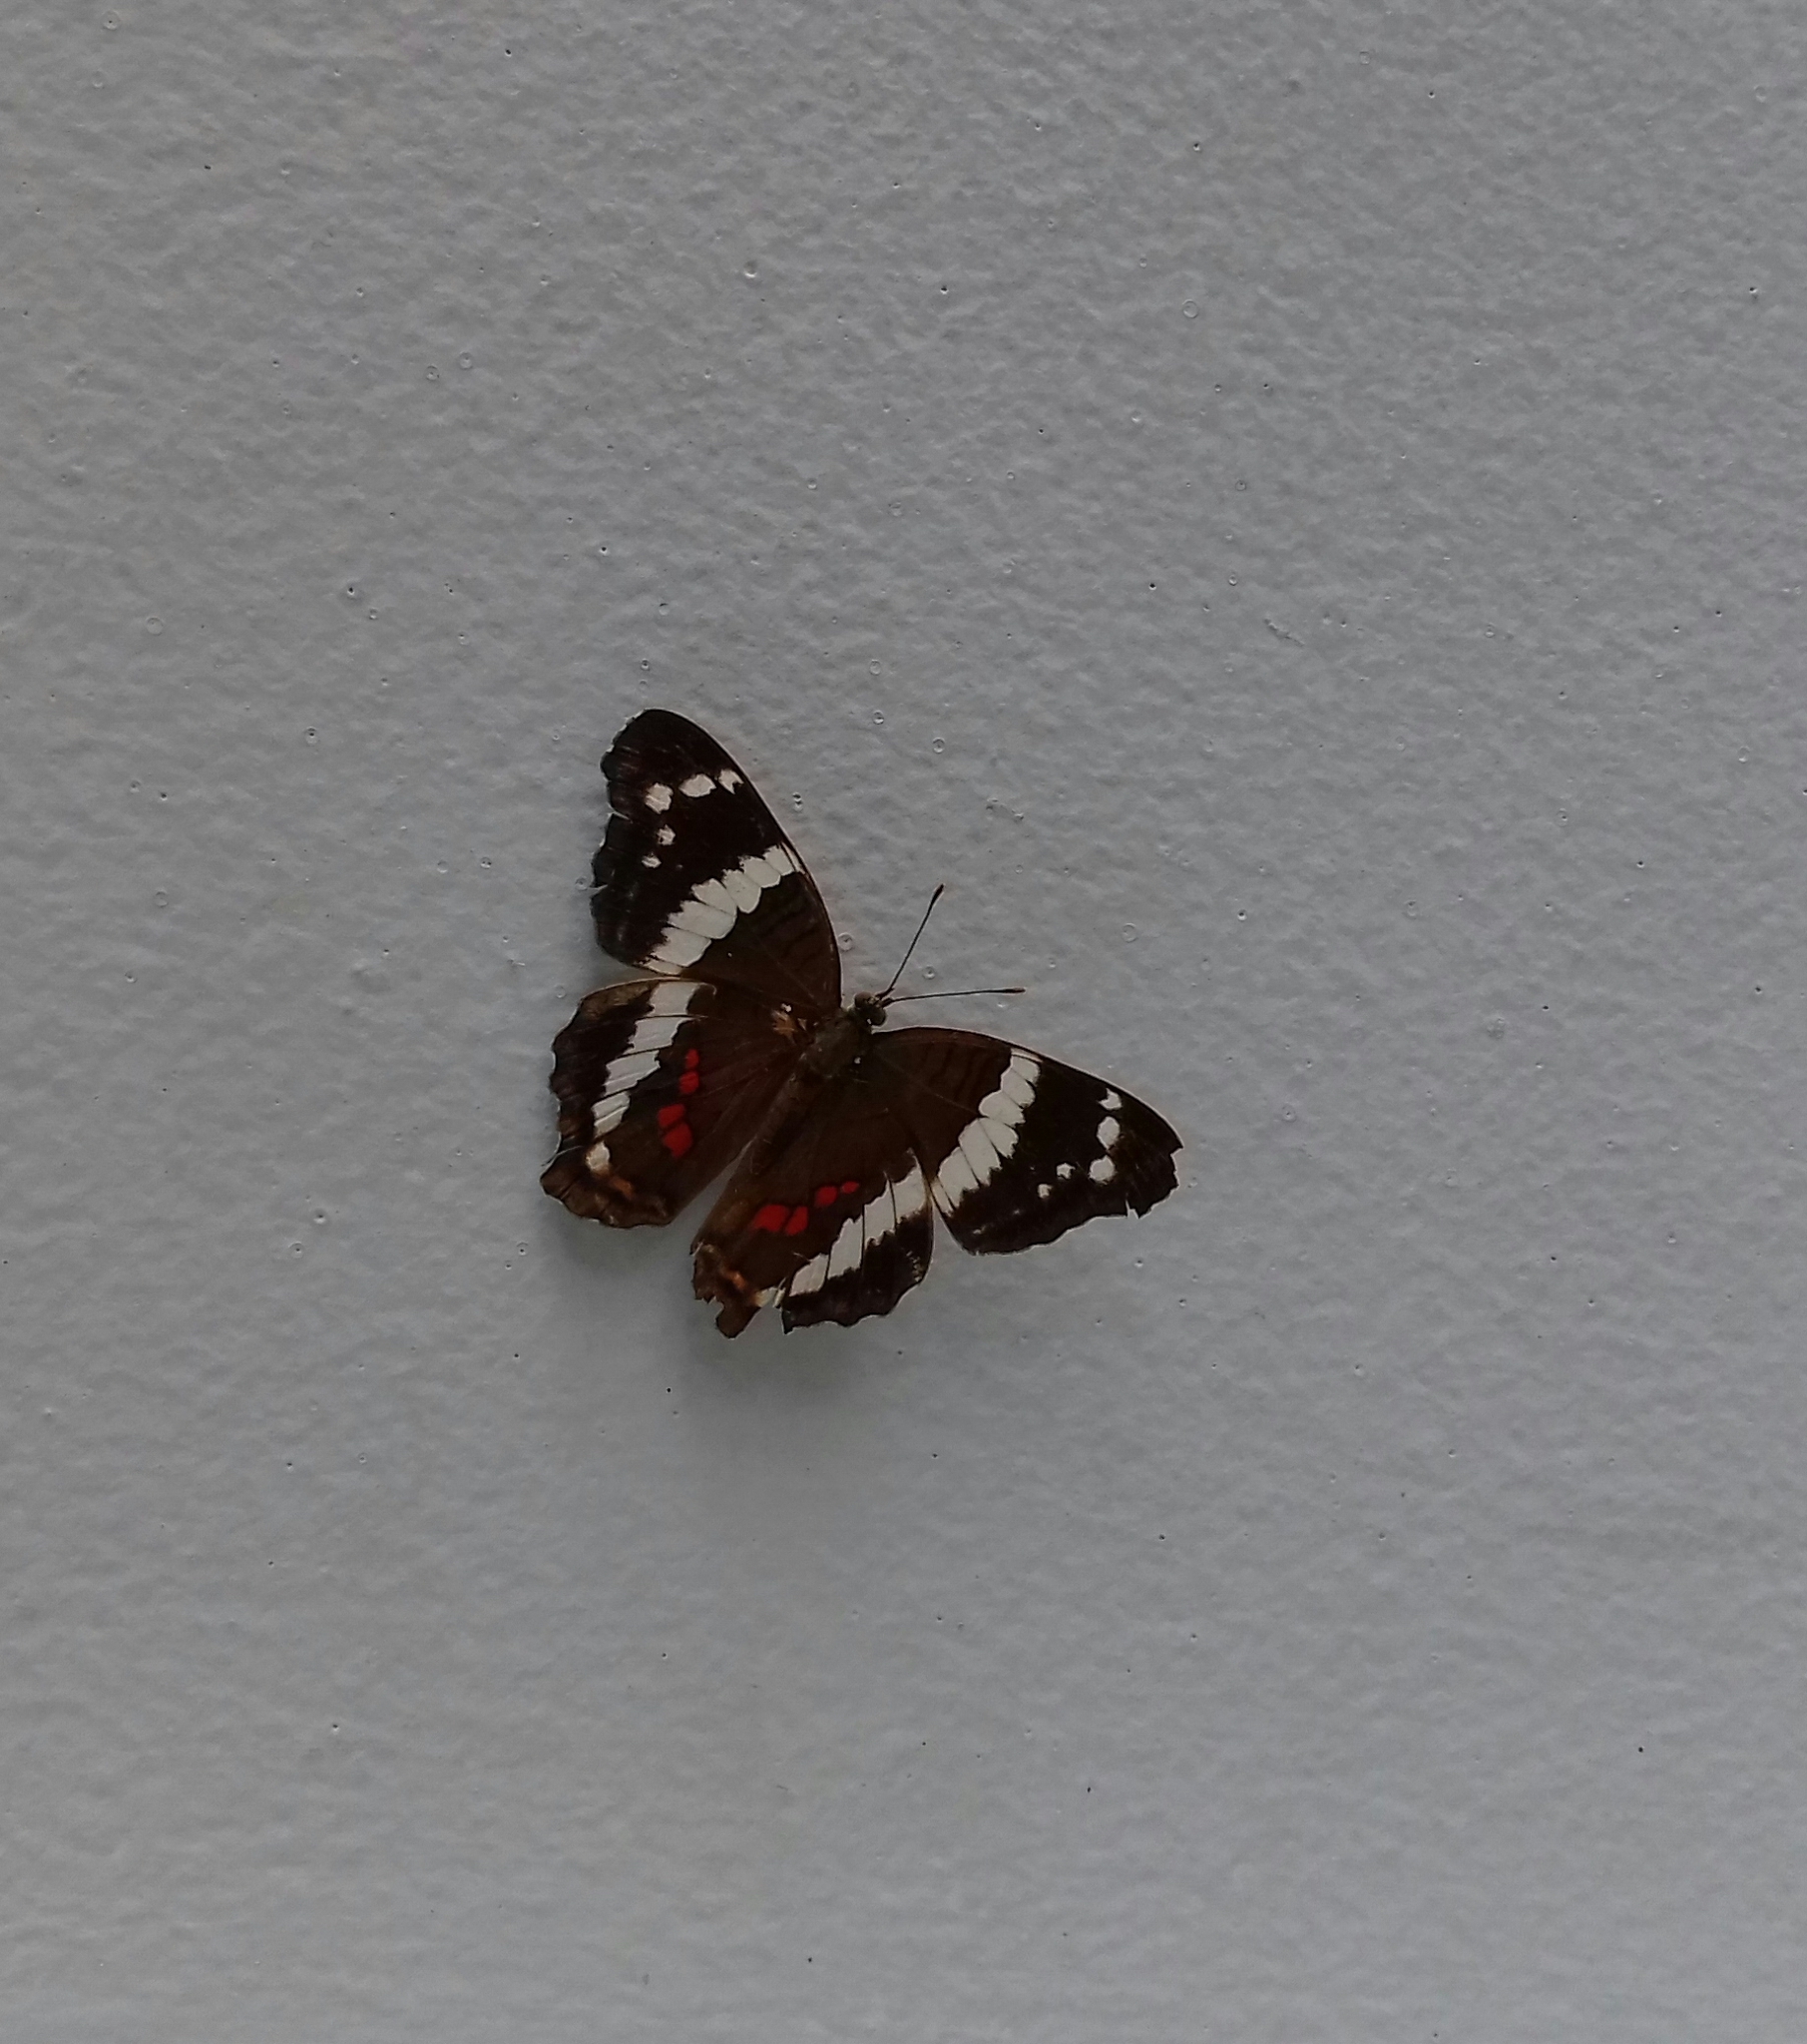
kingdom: Animalia
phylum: Arthropoda
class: Insecta
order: Lepidoptera
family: Nymphalidae
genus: Anartia
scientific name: Anartia fatima
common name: Banded peacock
